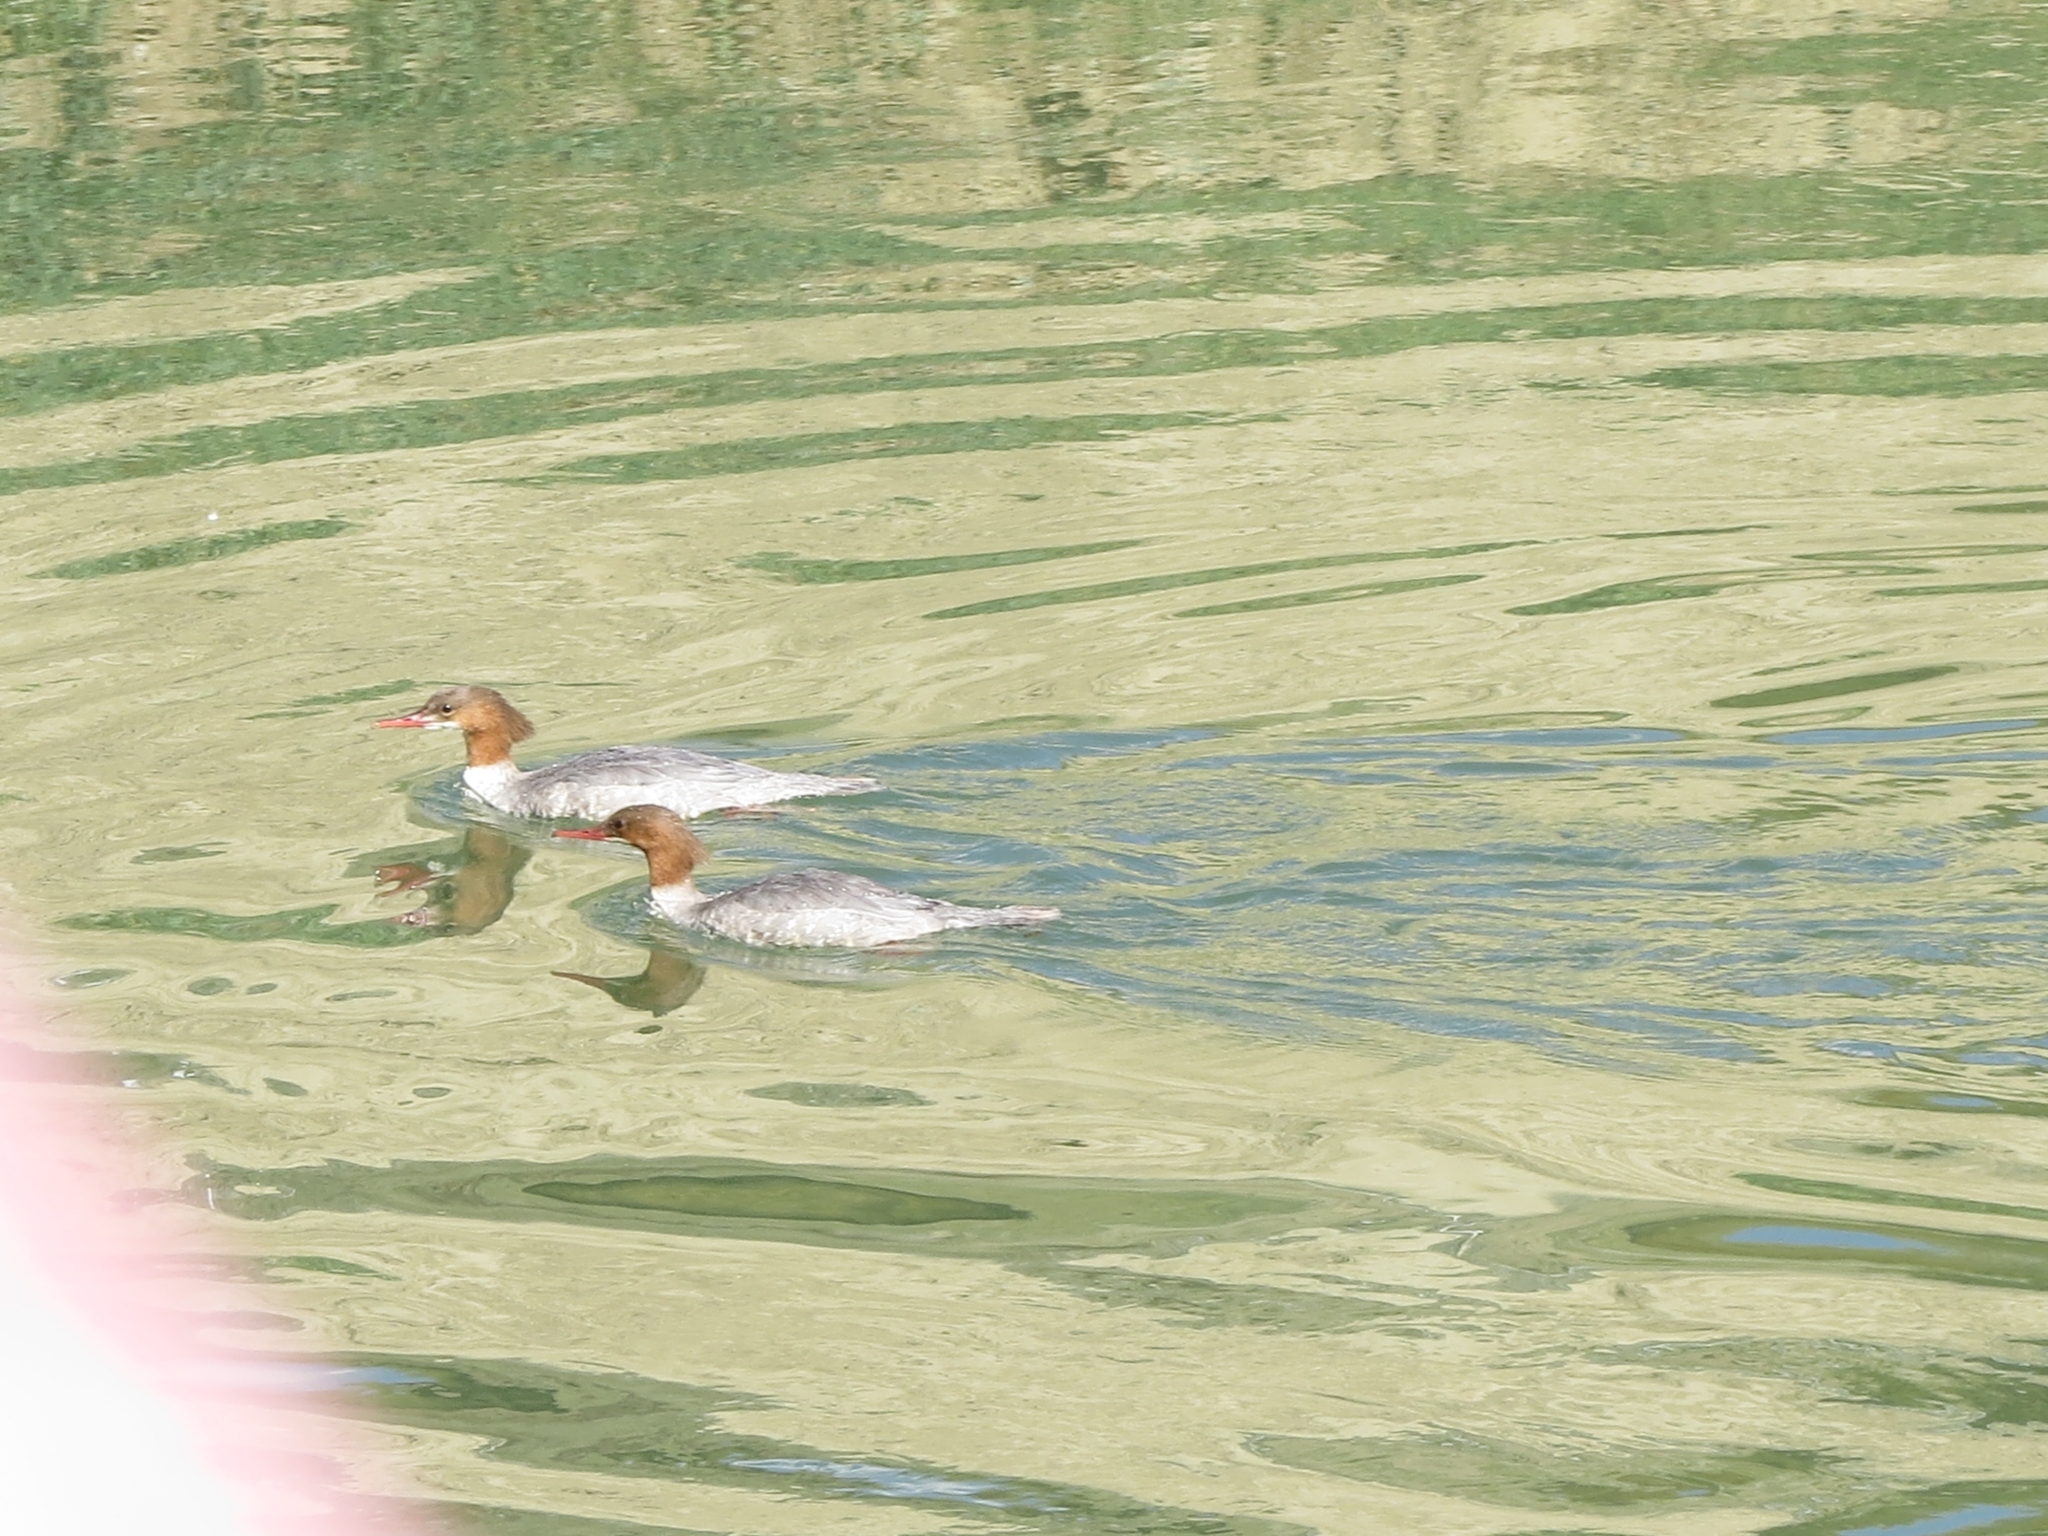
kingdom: Animalia
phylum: Chordata
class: Aves
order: Anseriformes
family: Anatidae
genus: Mergus
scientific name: Mergus merganser
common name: Common merganser
